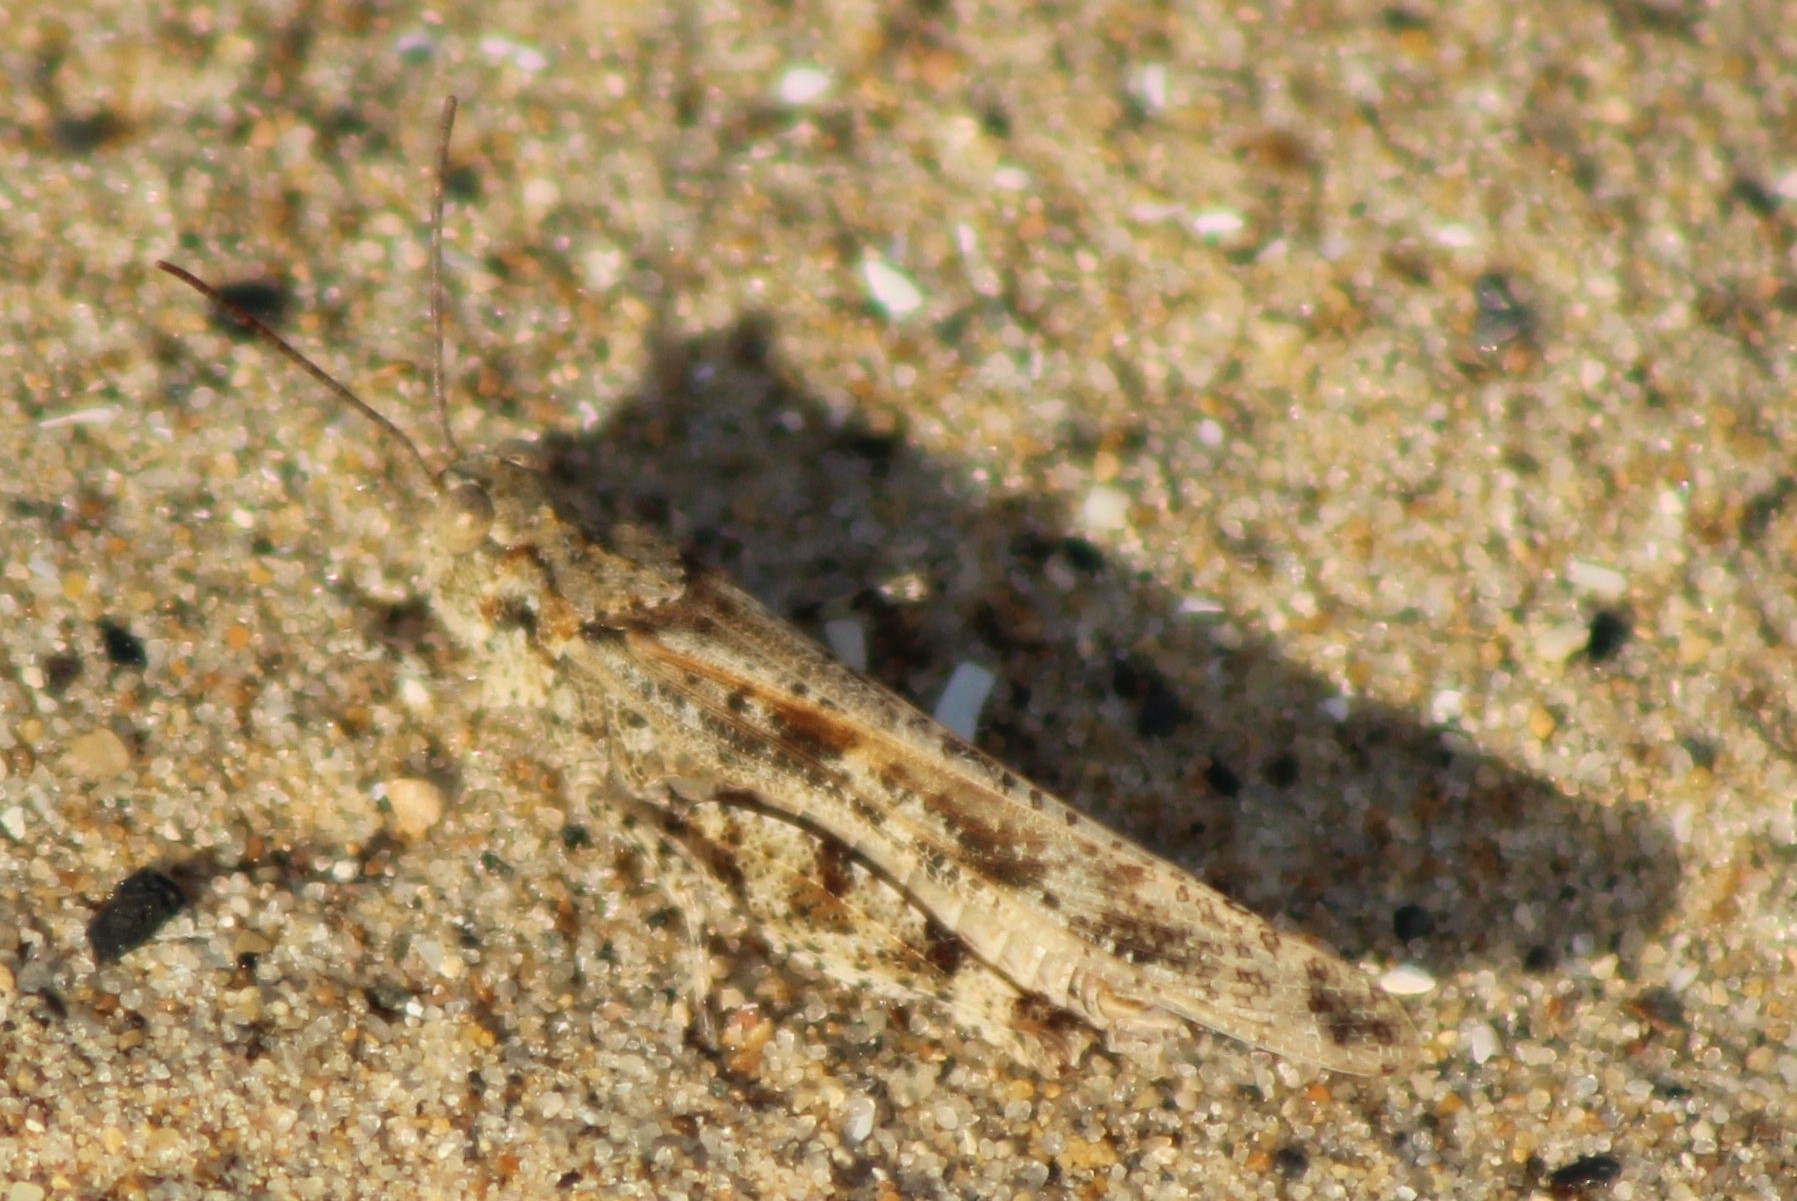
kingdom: Animalia
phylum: Arthropoda
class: Insecta
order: Orthoptera
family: Acrididae
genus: Trimerotropis
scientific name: Trimerotropis maritima
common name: Seaside locust
